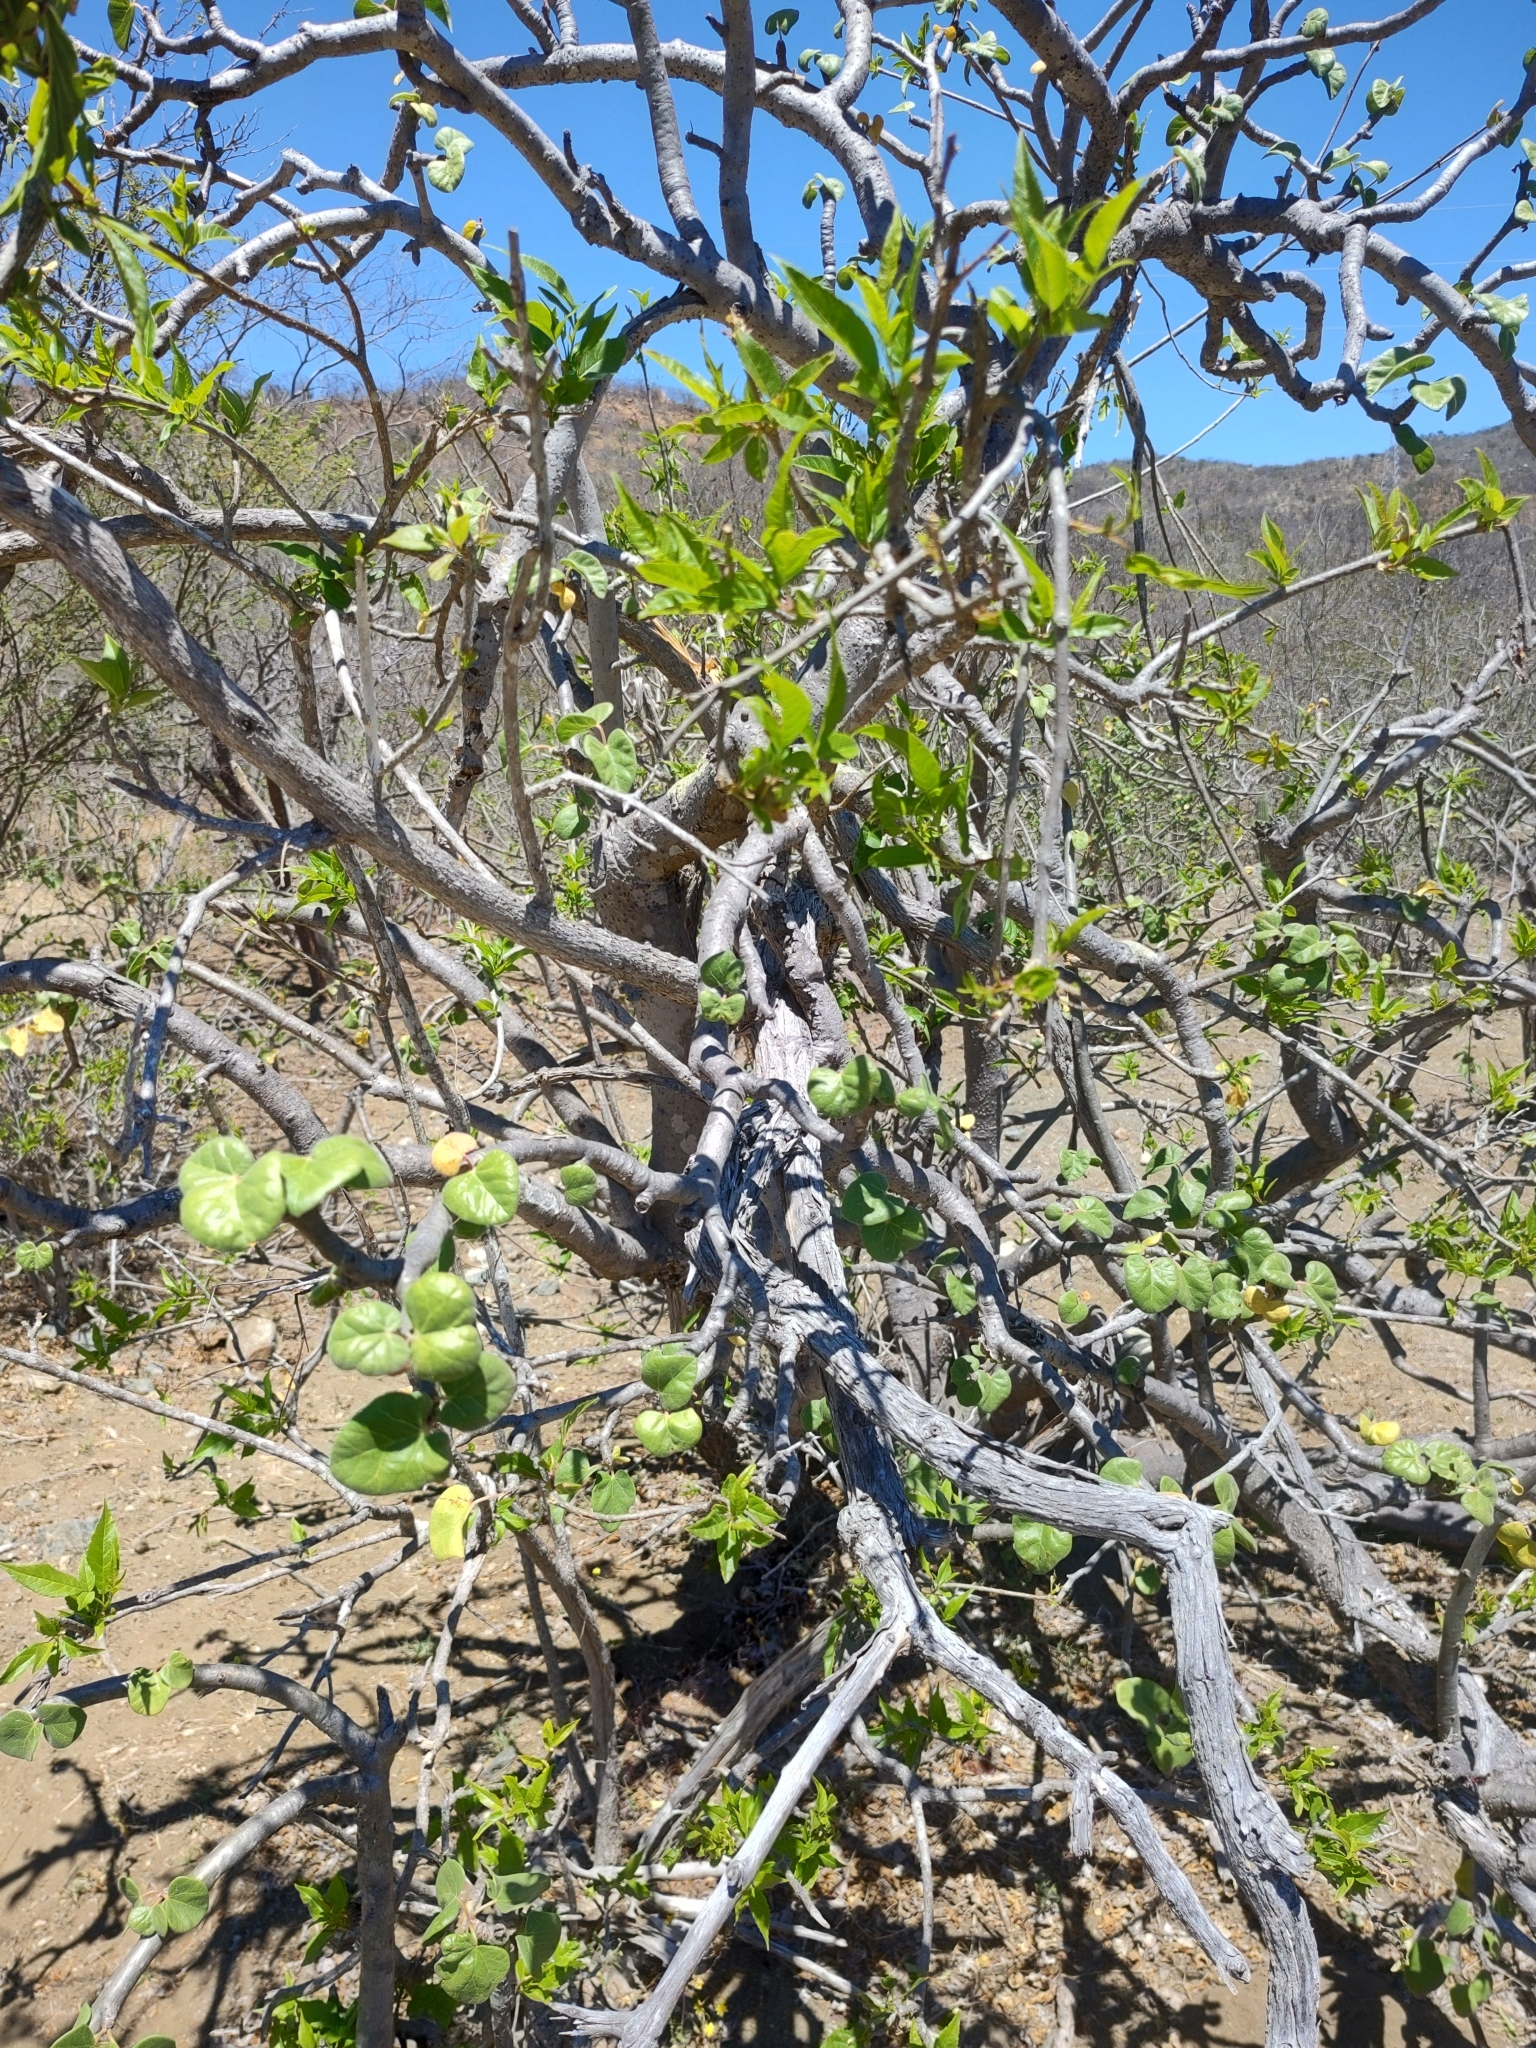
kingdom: Plantae
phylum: Tracheophyta
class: Magnoliopsida
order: Malpighiales
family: Euphorbiaceae
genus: Jatropha
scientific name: Jatropha cinerea
